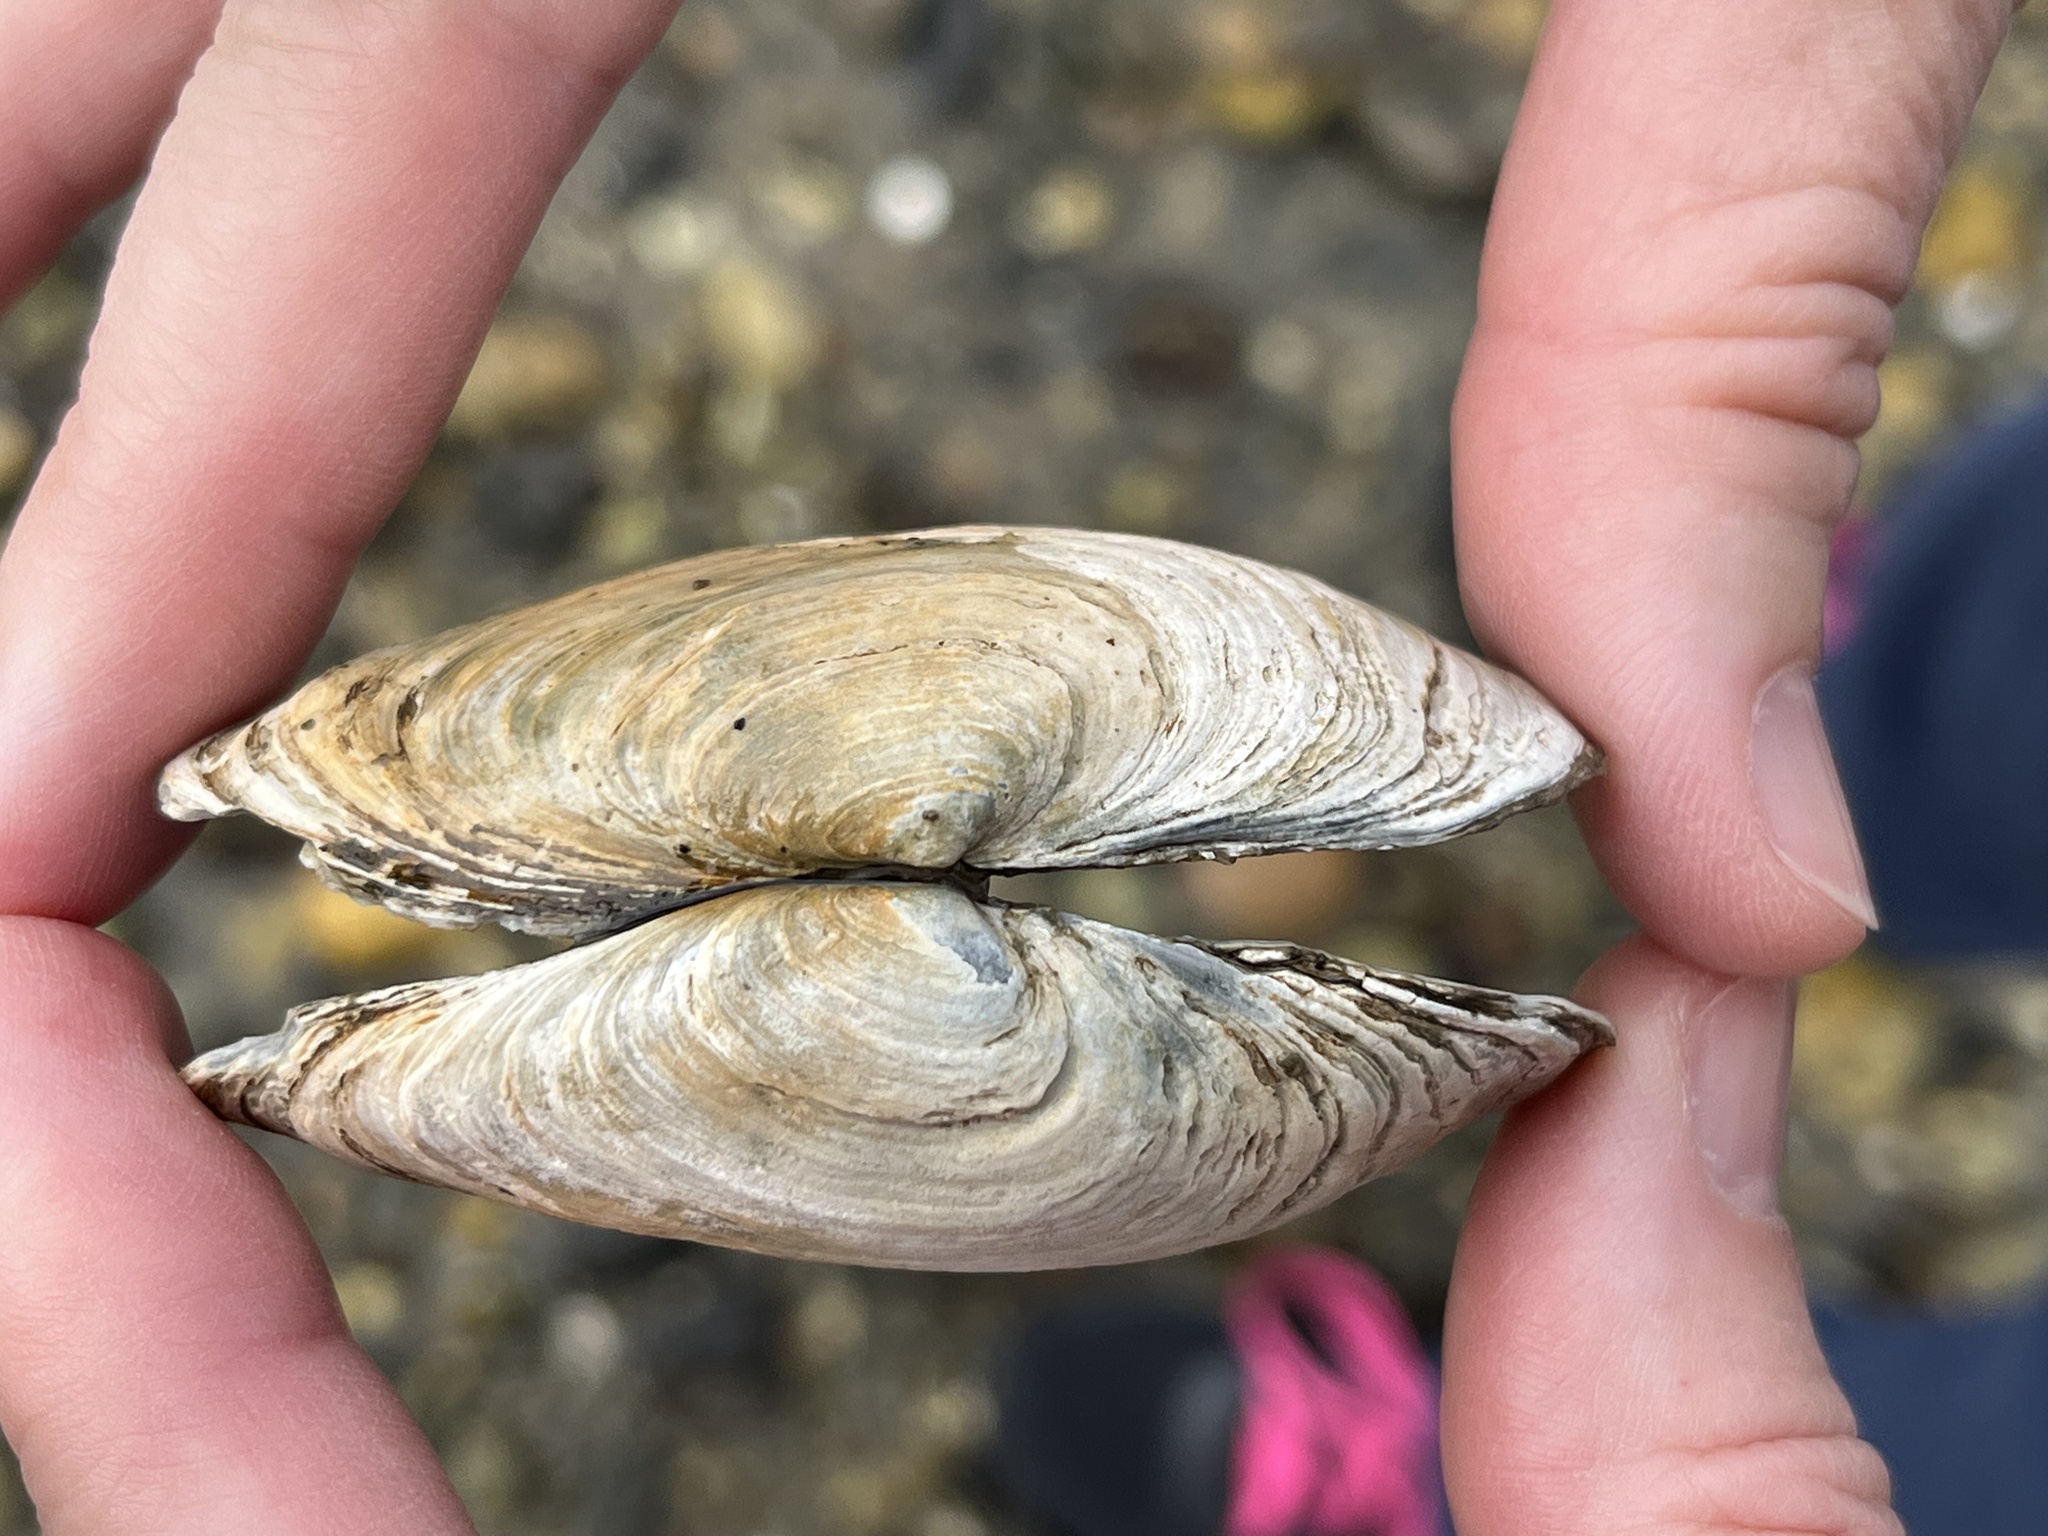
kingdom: Animalia
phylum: Mollusca
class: Bivalvia
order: Myida
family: Myidae
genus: Mya
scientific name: Mya arenaria
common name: Soft-shelled clam
